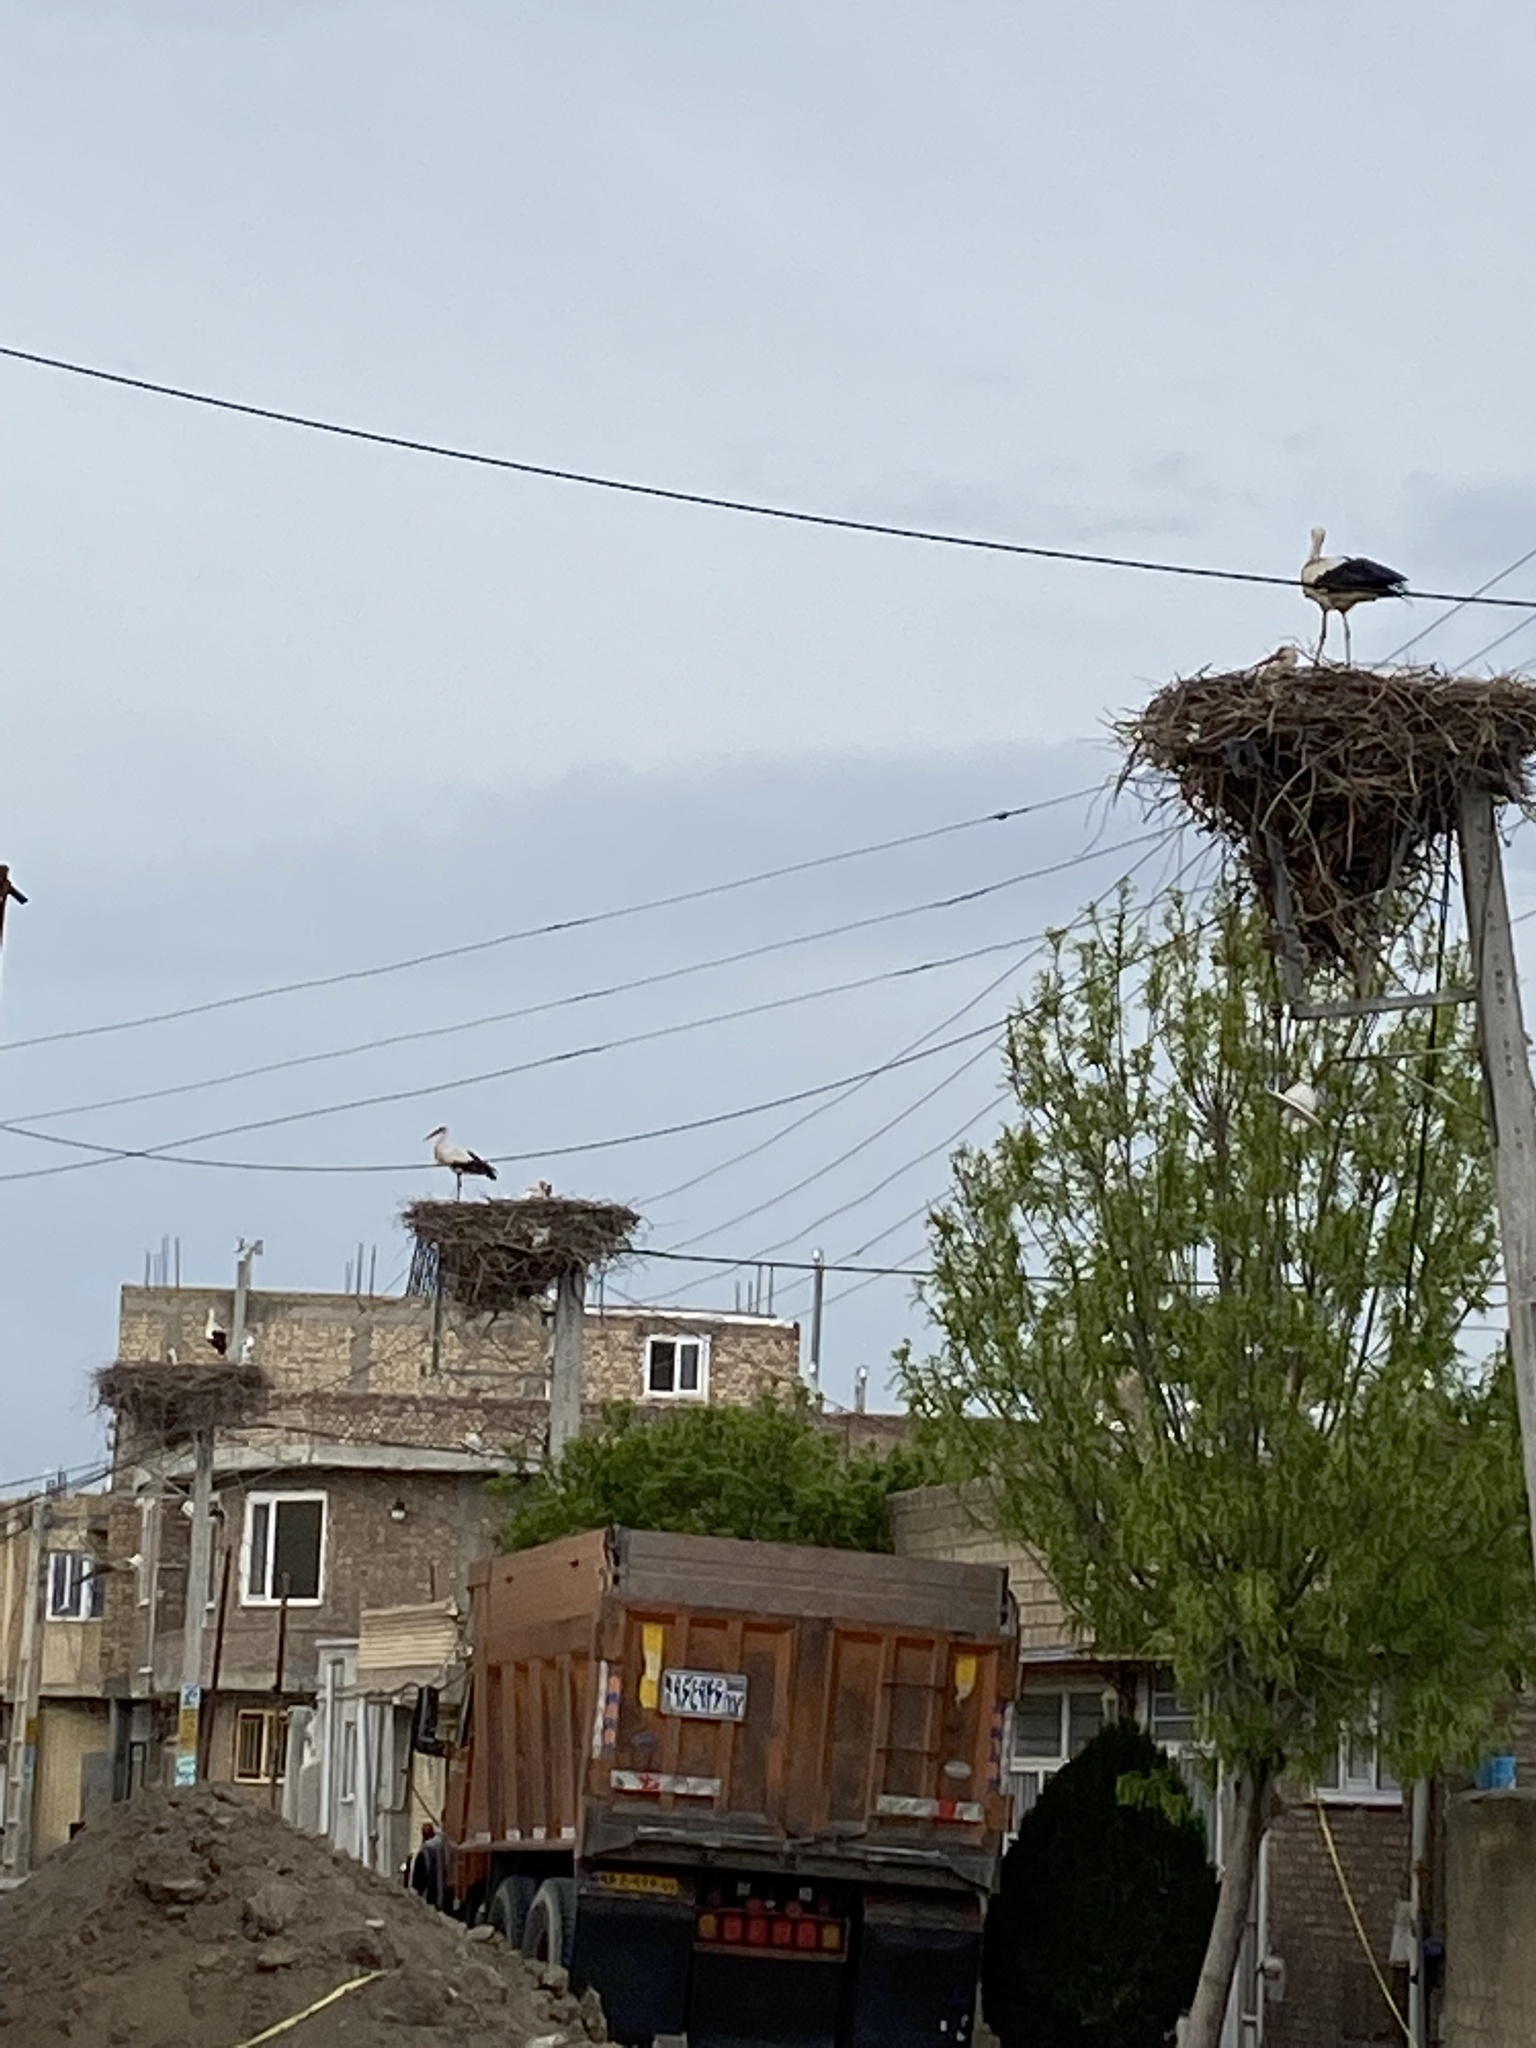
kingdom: Animalia
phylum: Chordata
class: Aves
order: Ciconiiformes
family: Ciconiidae
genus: Ciconia
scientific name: Ciconia ciconia
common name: White stork
